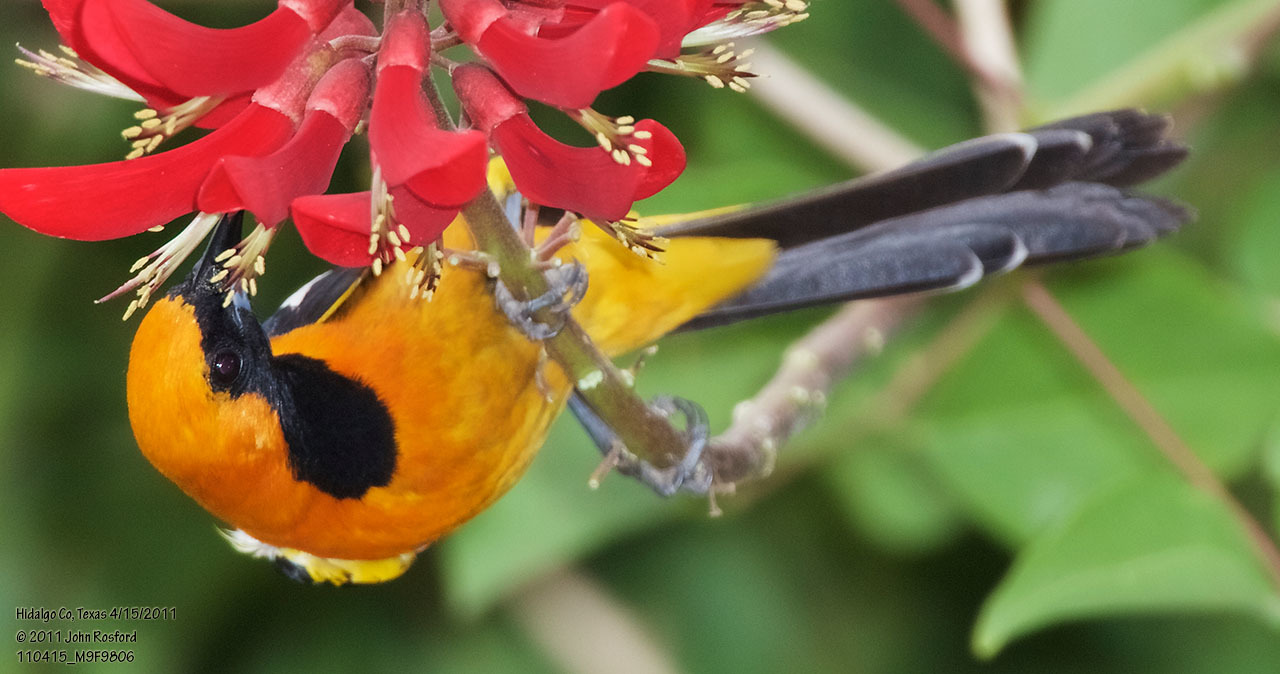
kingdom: Animalia
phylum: Chordata
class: Aves
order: Passeriformes
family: Icteridae
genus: Icterus
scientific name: Icterus cucullatus
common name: Hooded oriole
